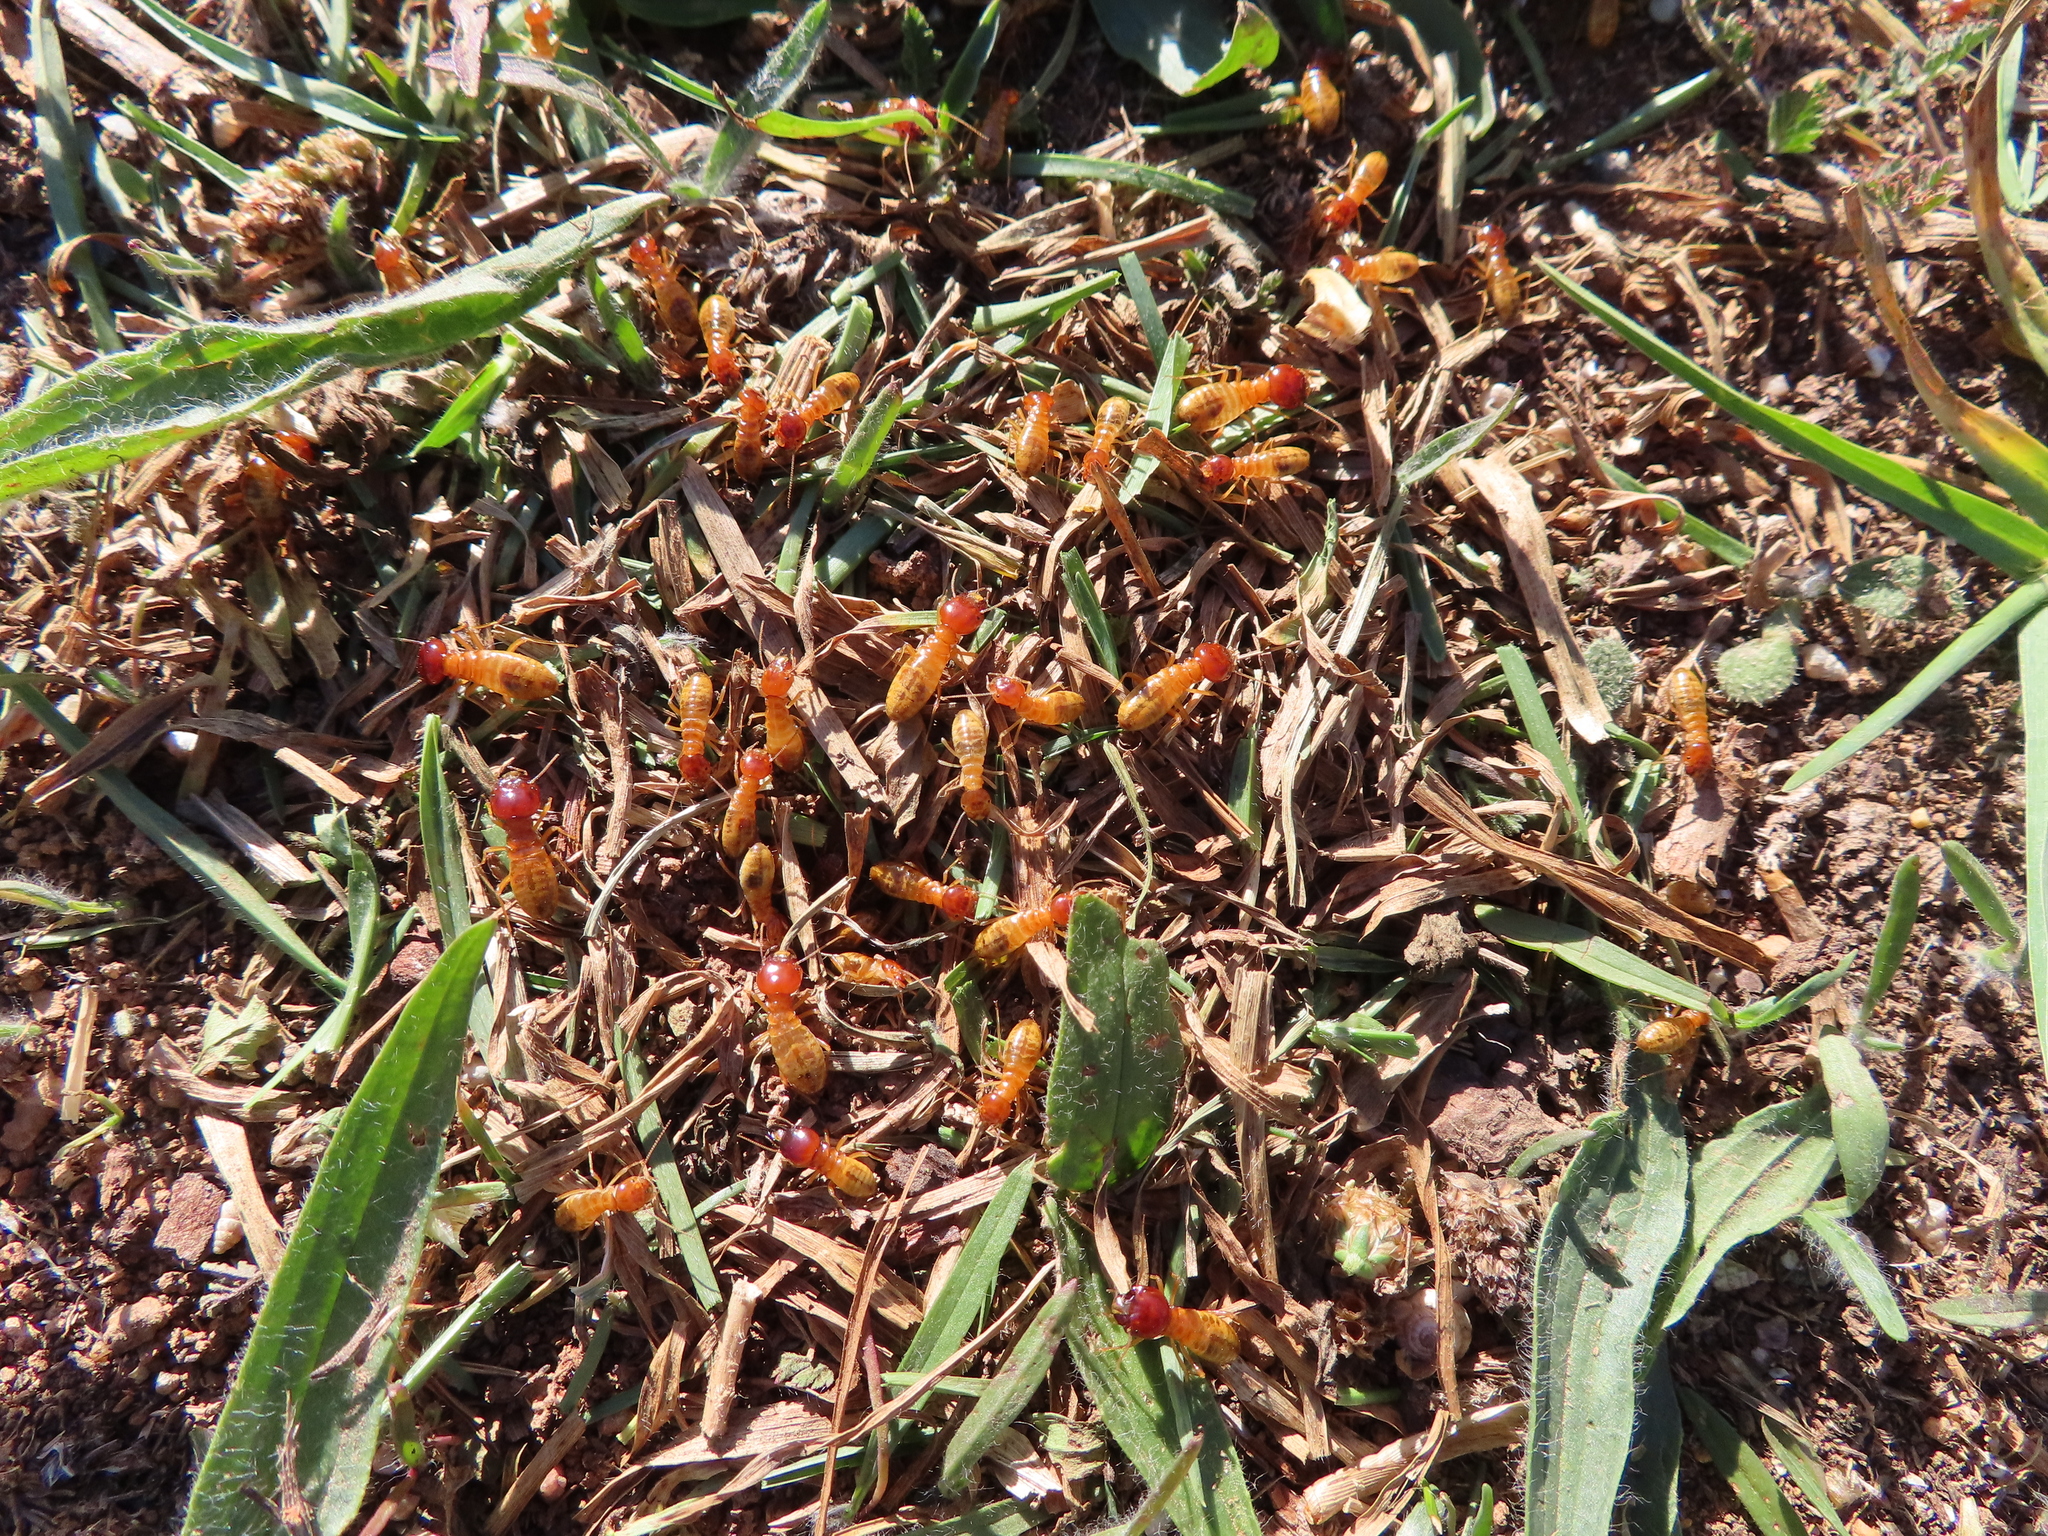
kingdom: Animalia
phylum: Arthropoda
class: Insecta
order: Blattodea
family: Hodotermitidae
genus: Microhodotermes
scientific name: Microhodotermes viator
